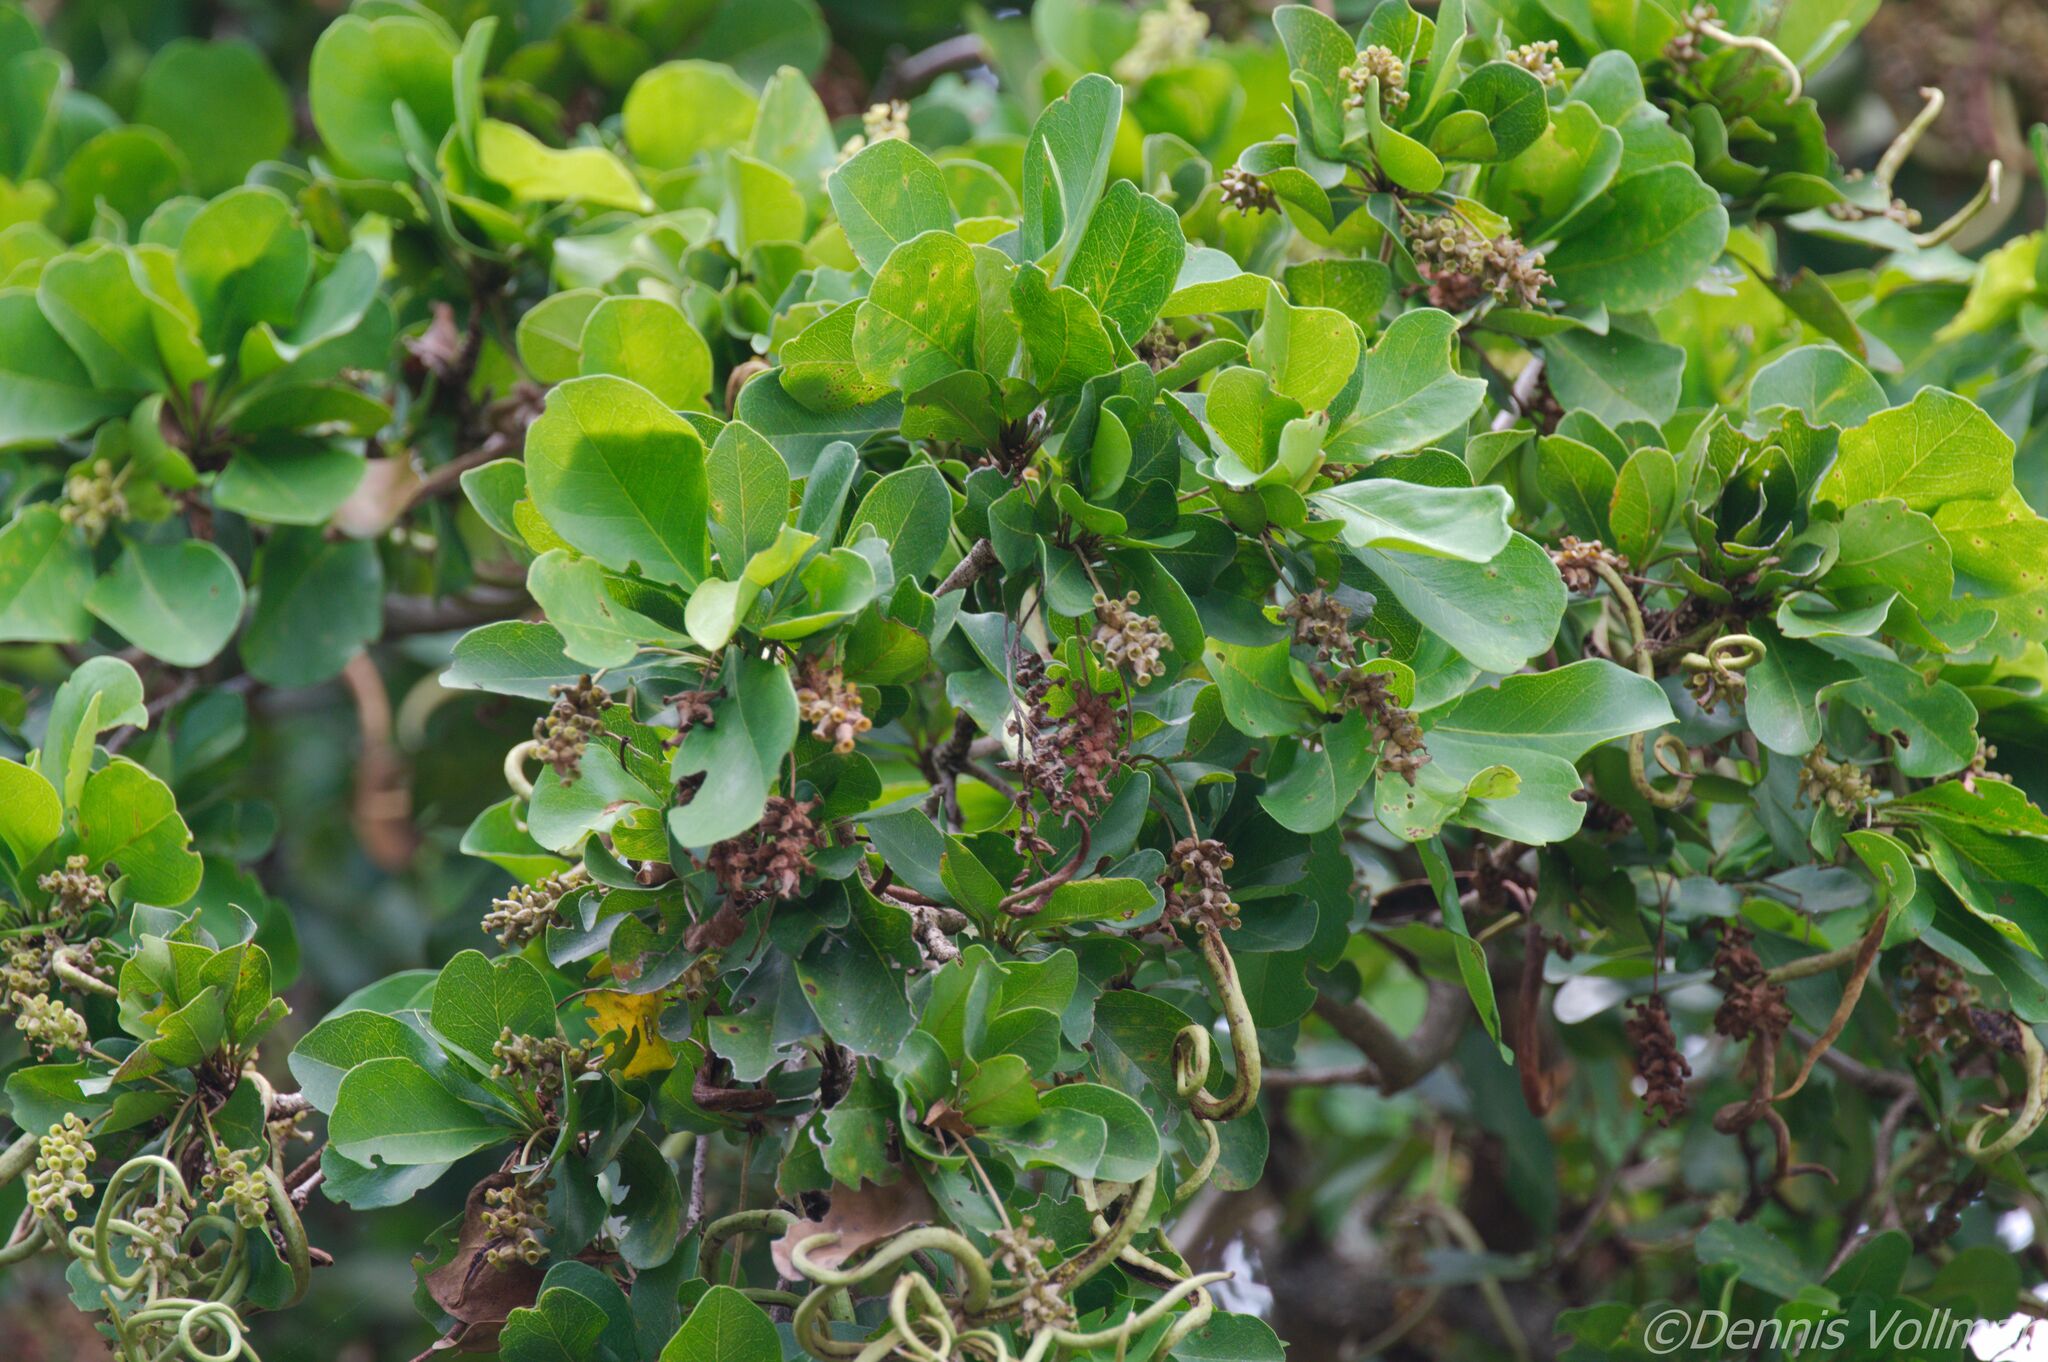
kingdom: Plantae
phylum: Tracheophyta
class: Magnoliopsida
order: Myrtales
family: Combretaceae
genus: Terminalia
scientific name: Terminalia buceras
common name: Black-olive
